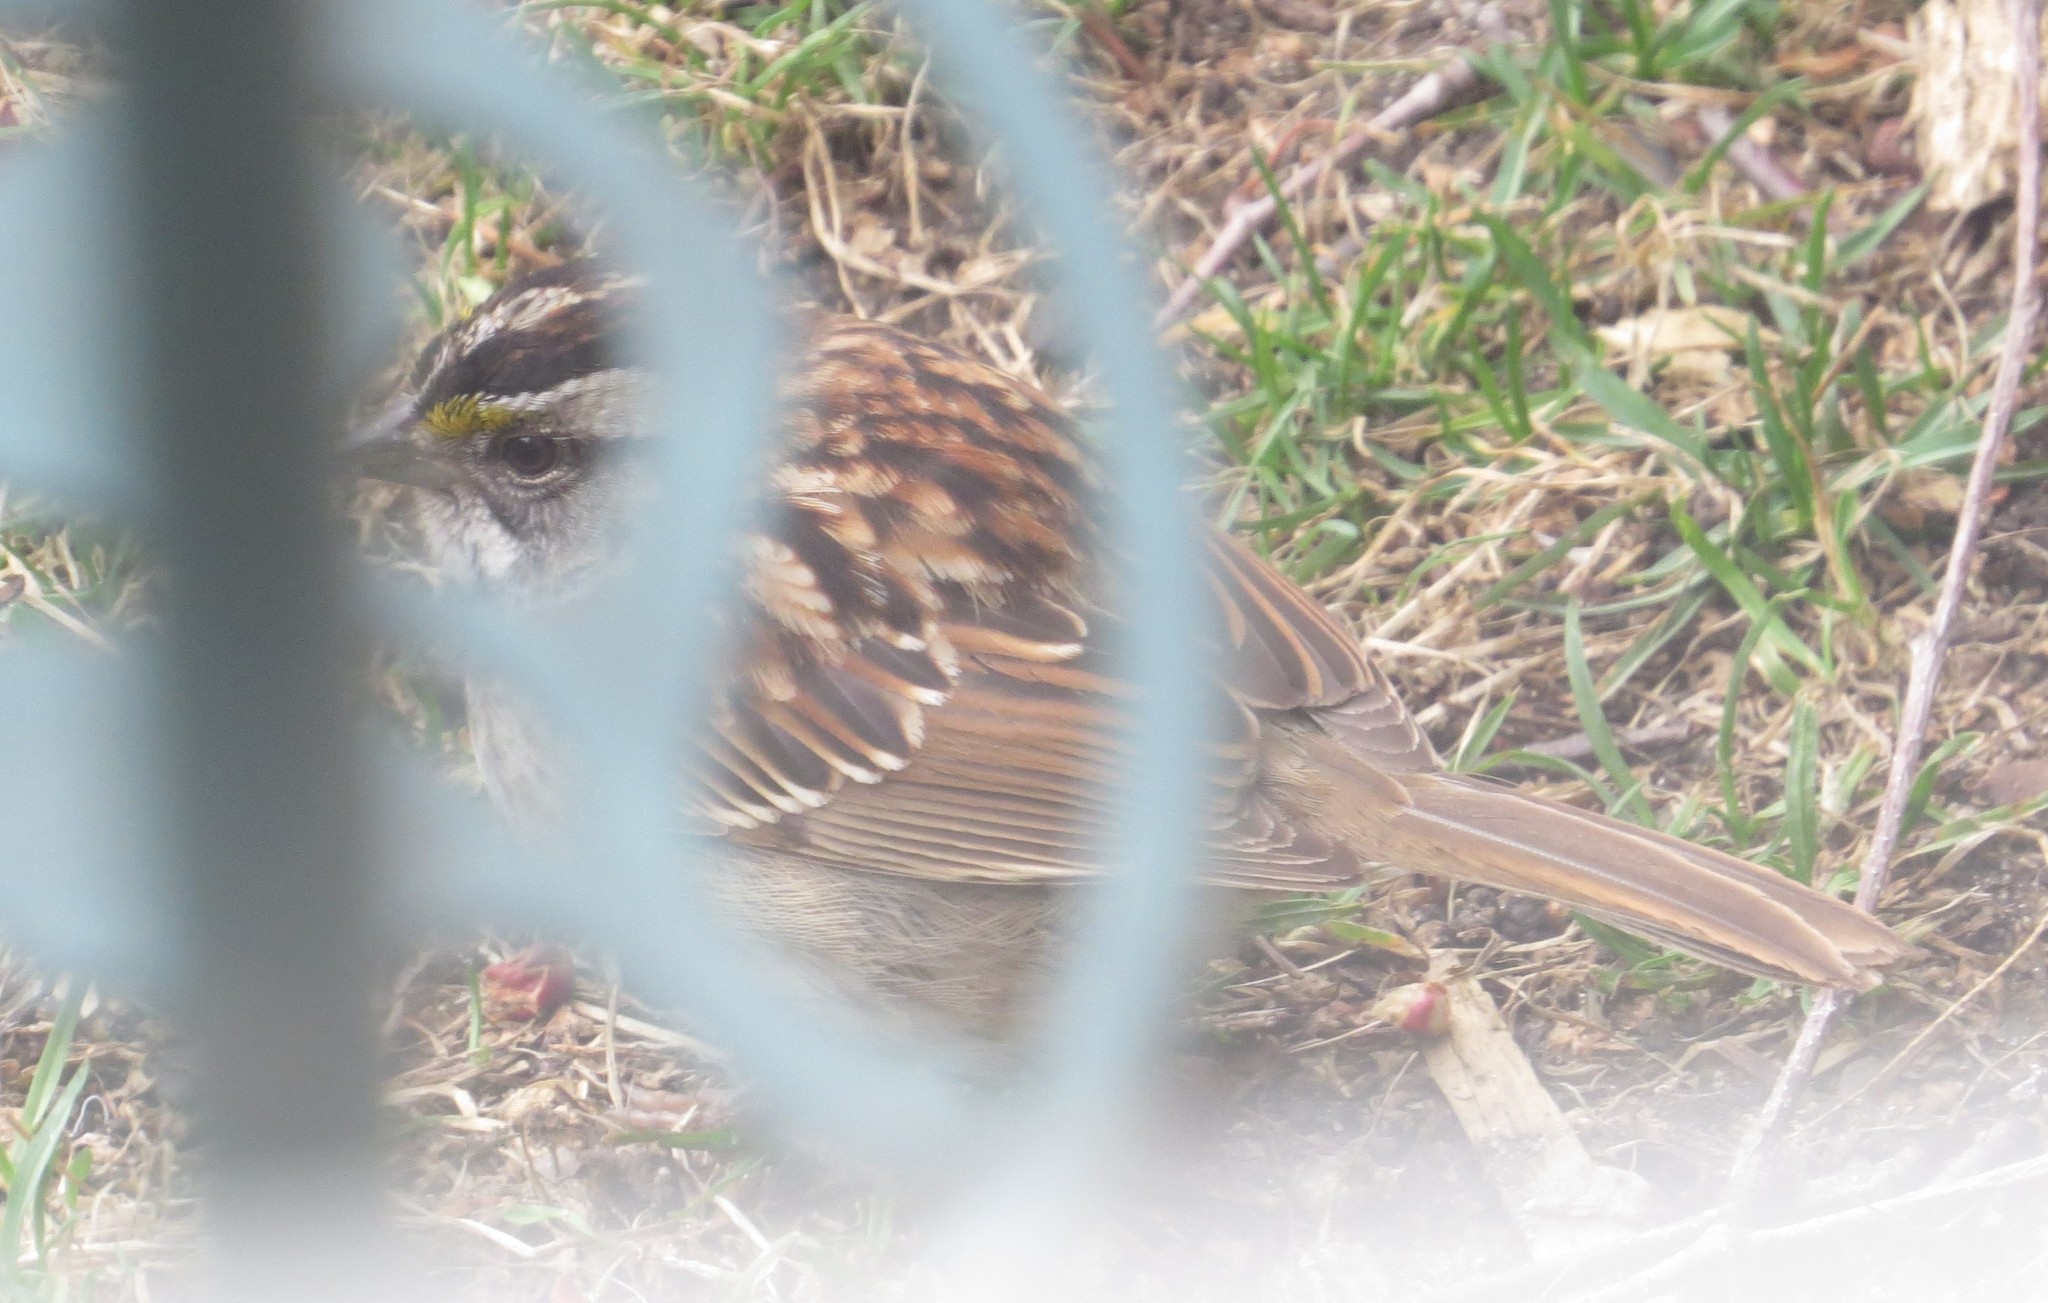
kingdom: Animalia
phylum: Chordata
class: Aves
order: Passeriformes
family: Passerellidae
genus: Zonotrichia
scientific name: Zonotrichia albicollis
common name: White-throated sparrow
